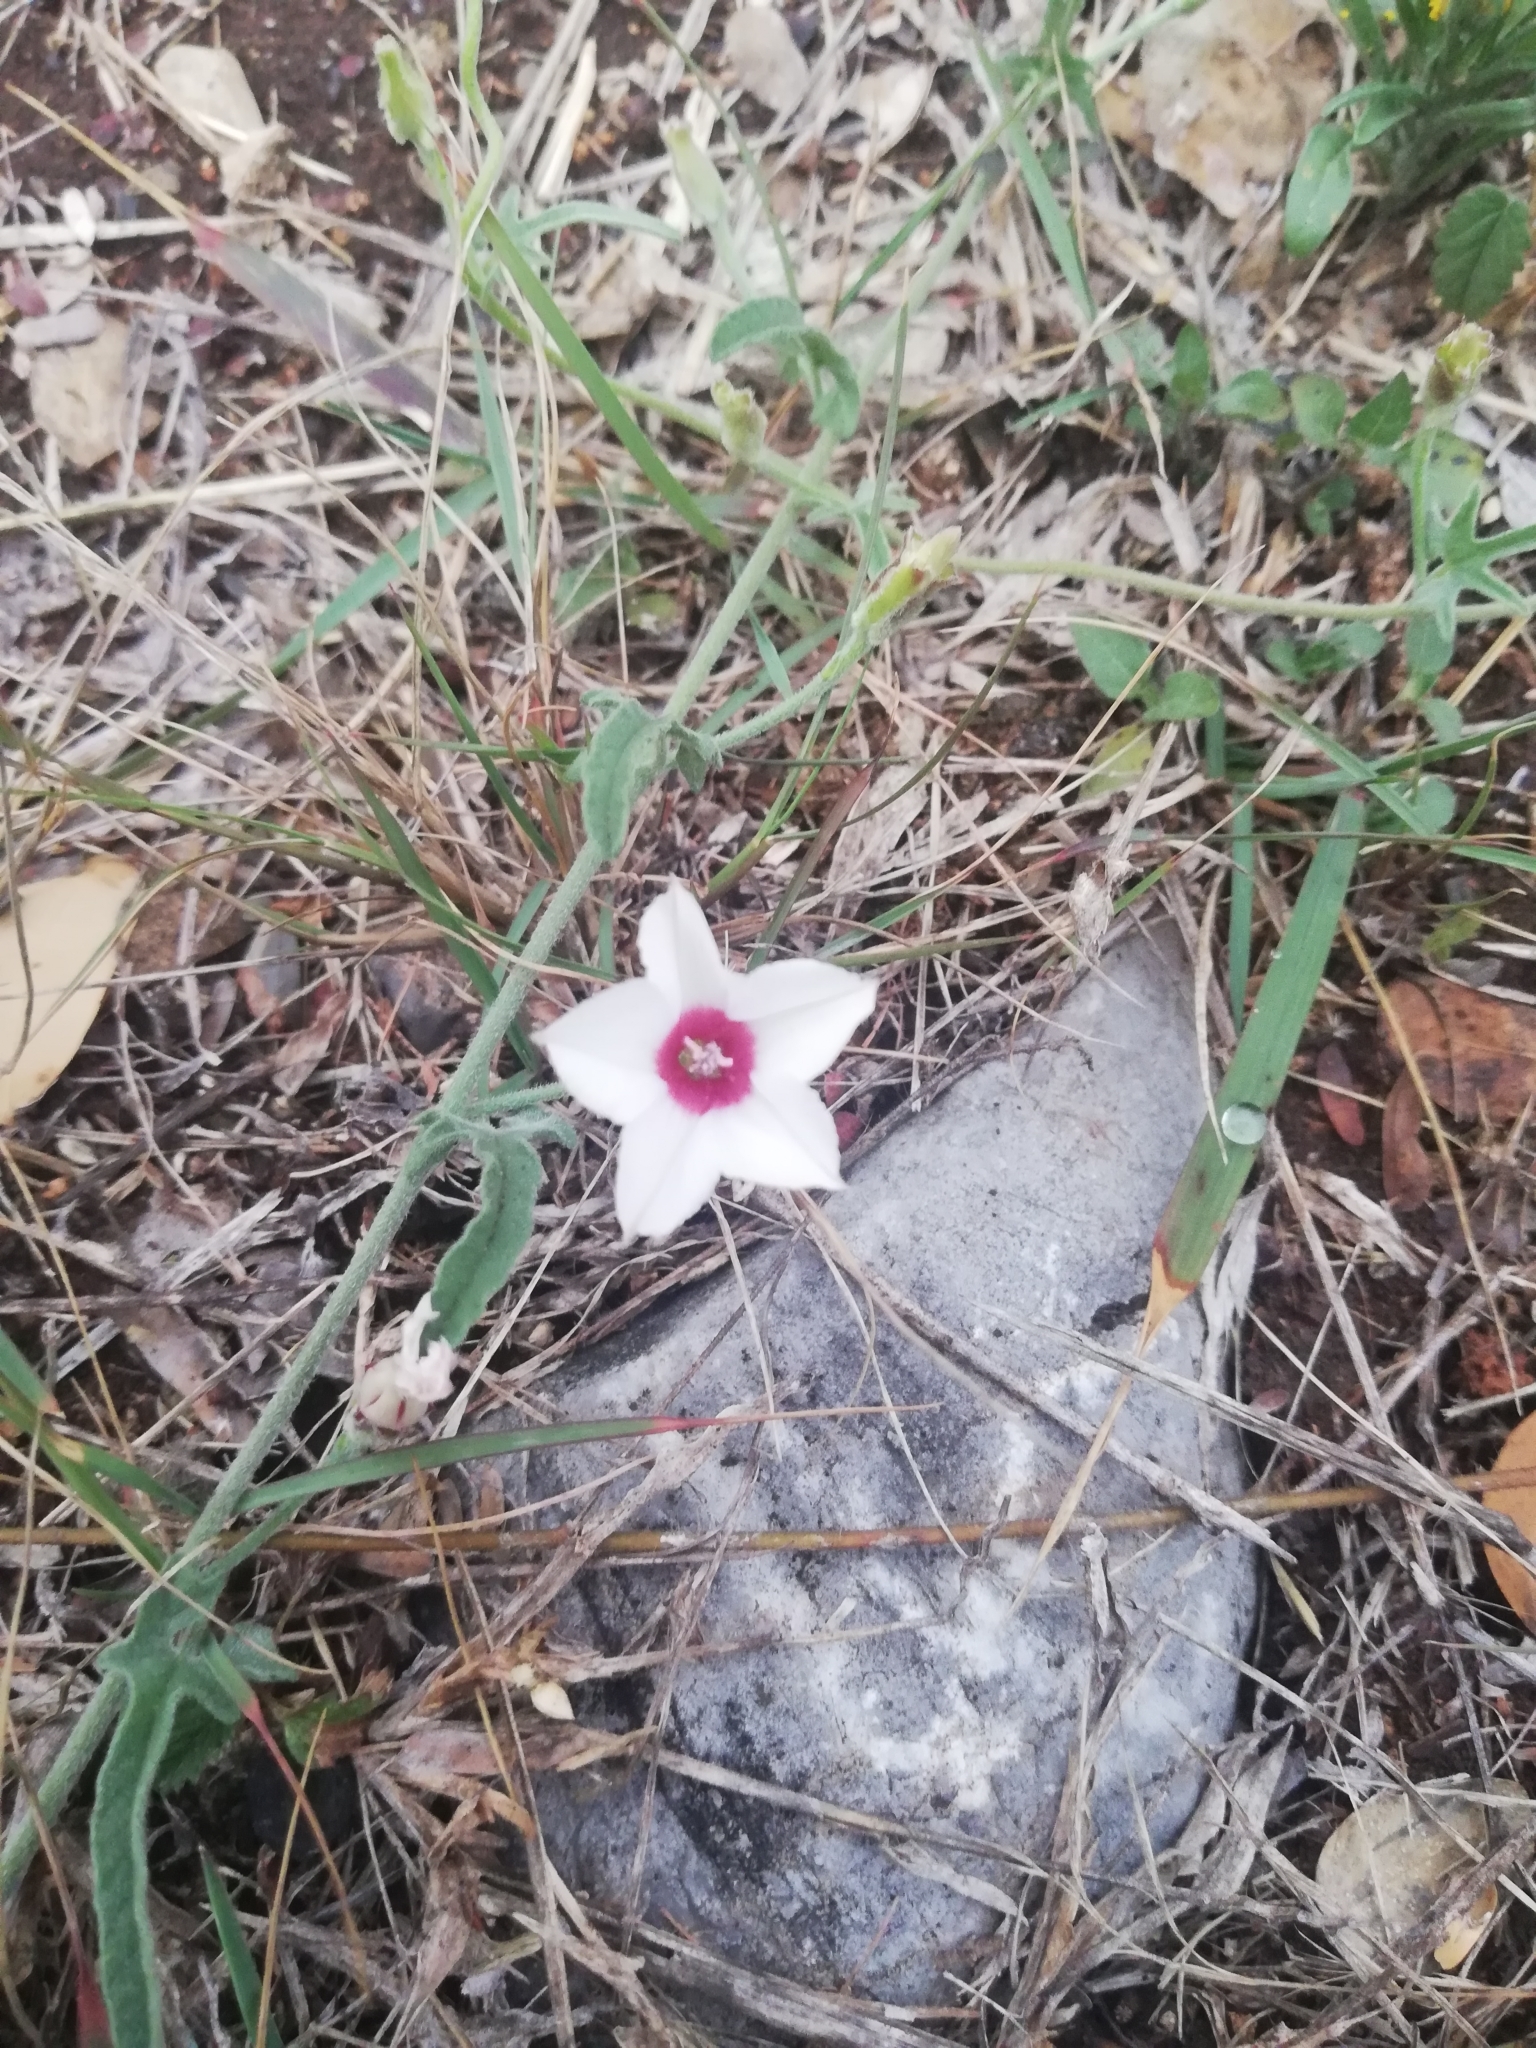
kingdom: Plantae
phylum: Tracheophyta
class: Magnoliopsida
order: Solanales
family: Convolvulaceae
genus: Convolvulus
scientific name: Convolvulus equitans
